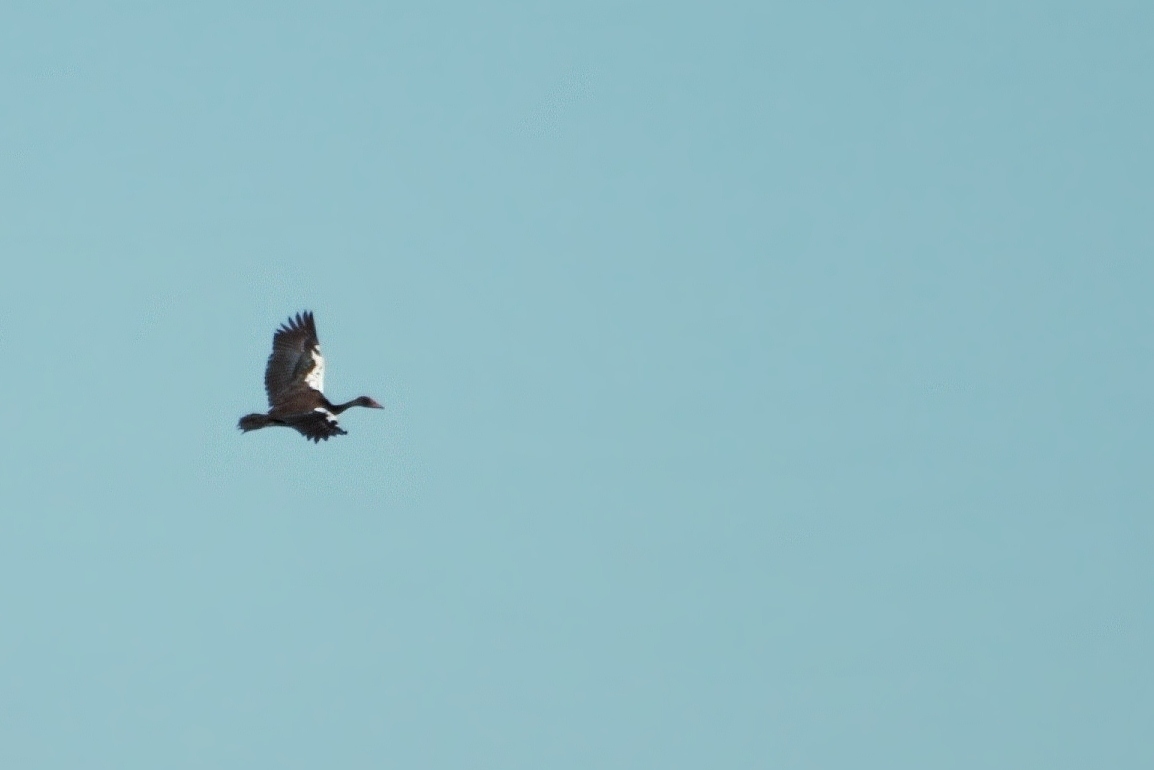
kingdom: Animalia
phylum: Chordata
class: Aves
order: Anseriformes
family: Anatidae
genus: Plectropterus
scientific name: Plectropterus gambensis
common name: Spur-winged goose
